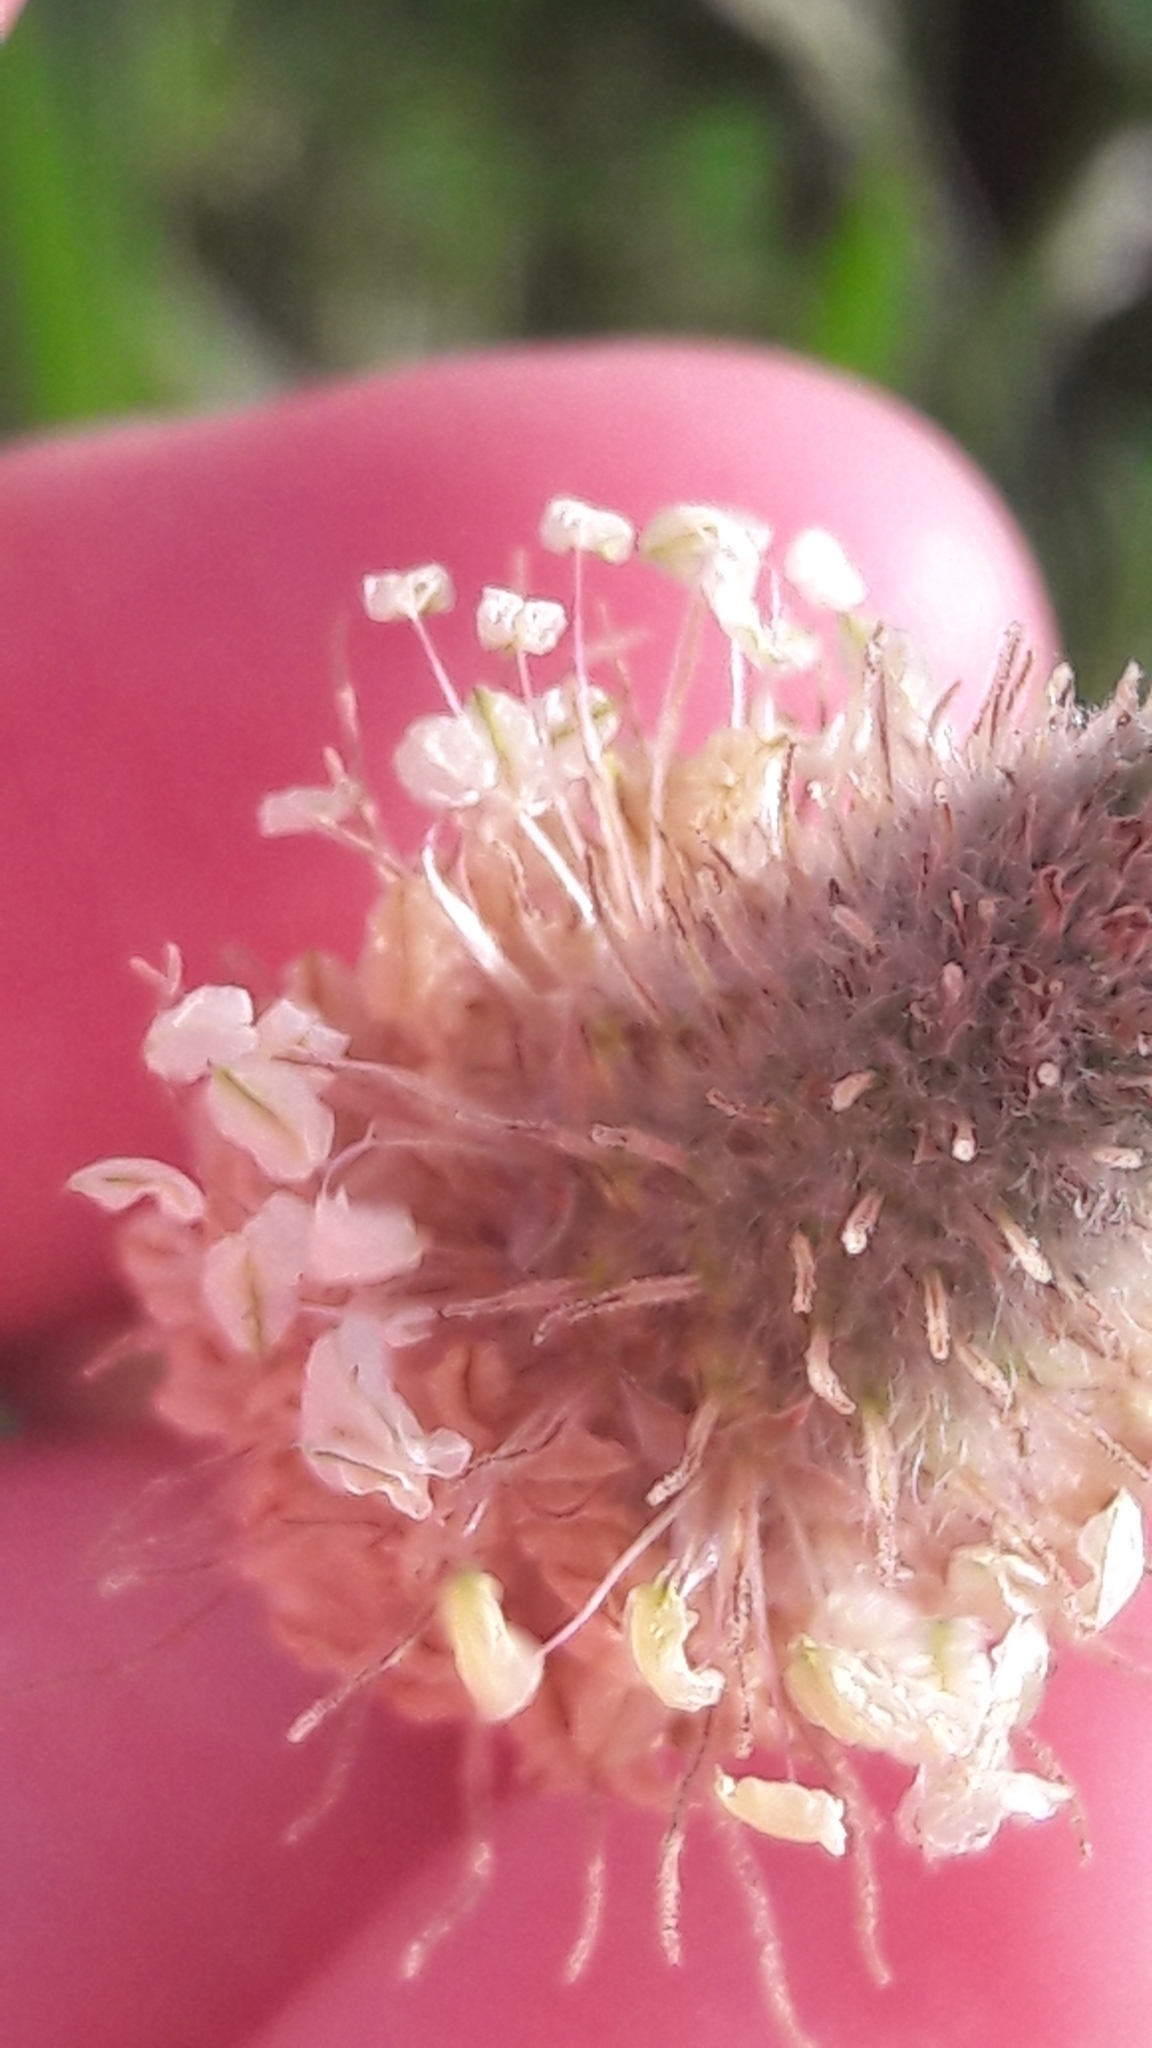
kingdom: Plantae
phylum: Tracheophyta
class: Magnoliopsida
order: Lamiales
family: Plantaginaceae
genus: Plantago
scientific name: Plantago lagopus
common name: Hare-foot plantain
